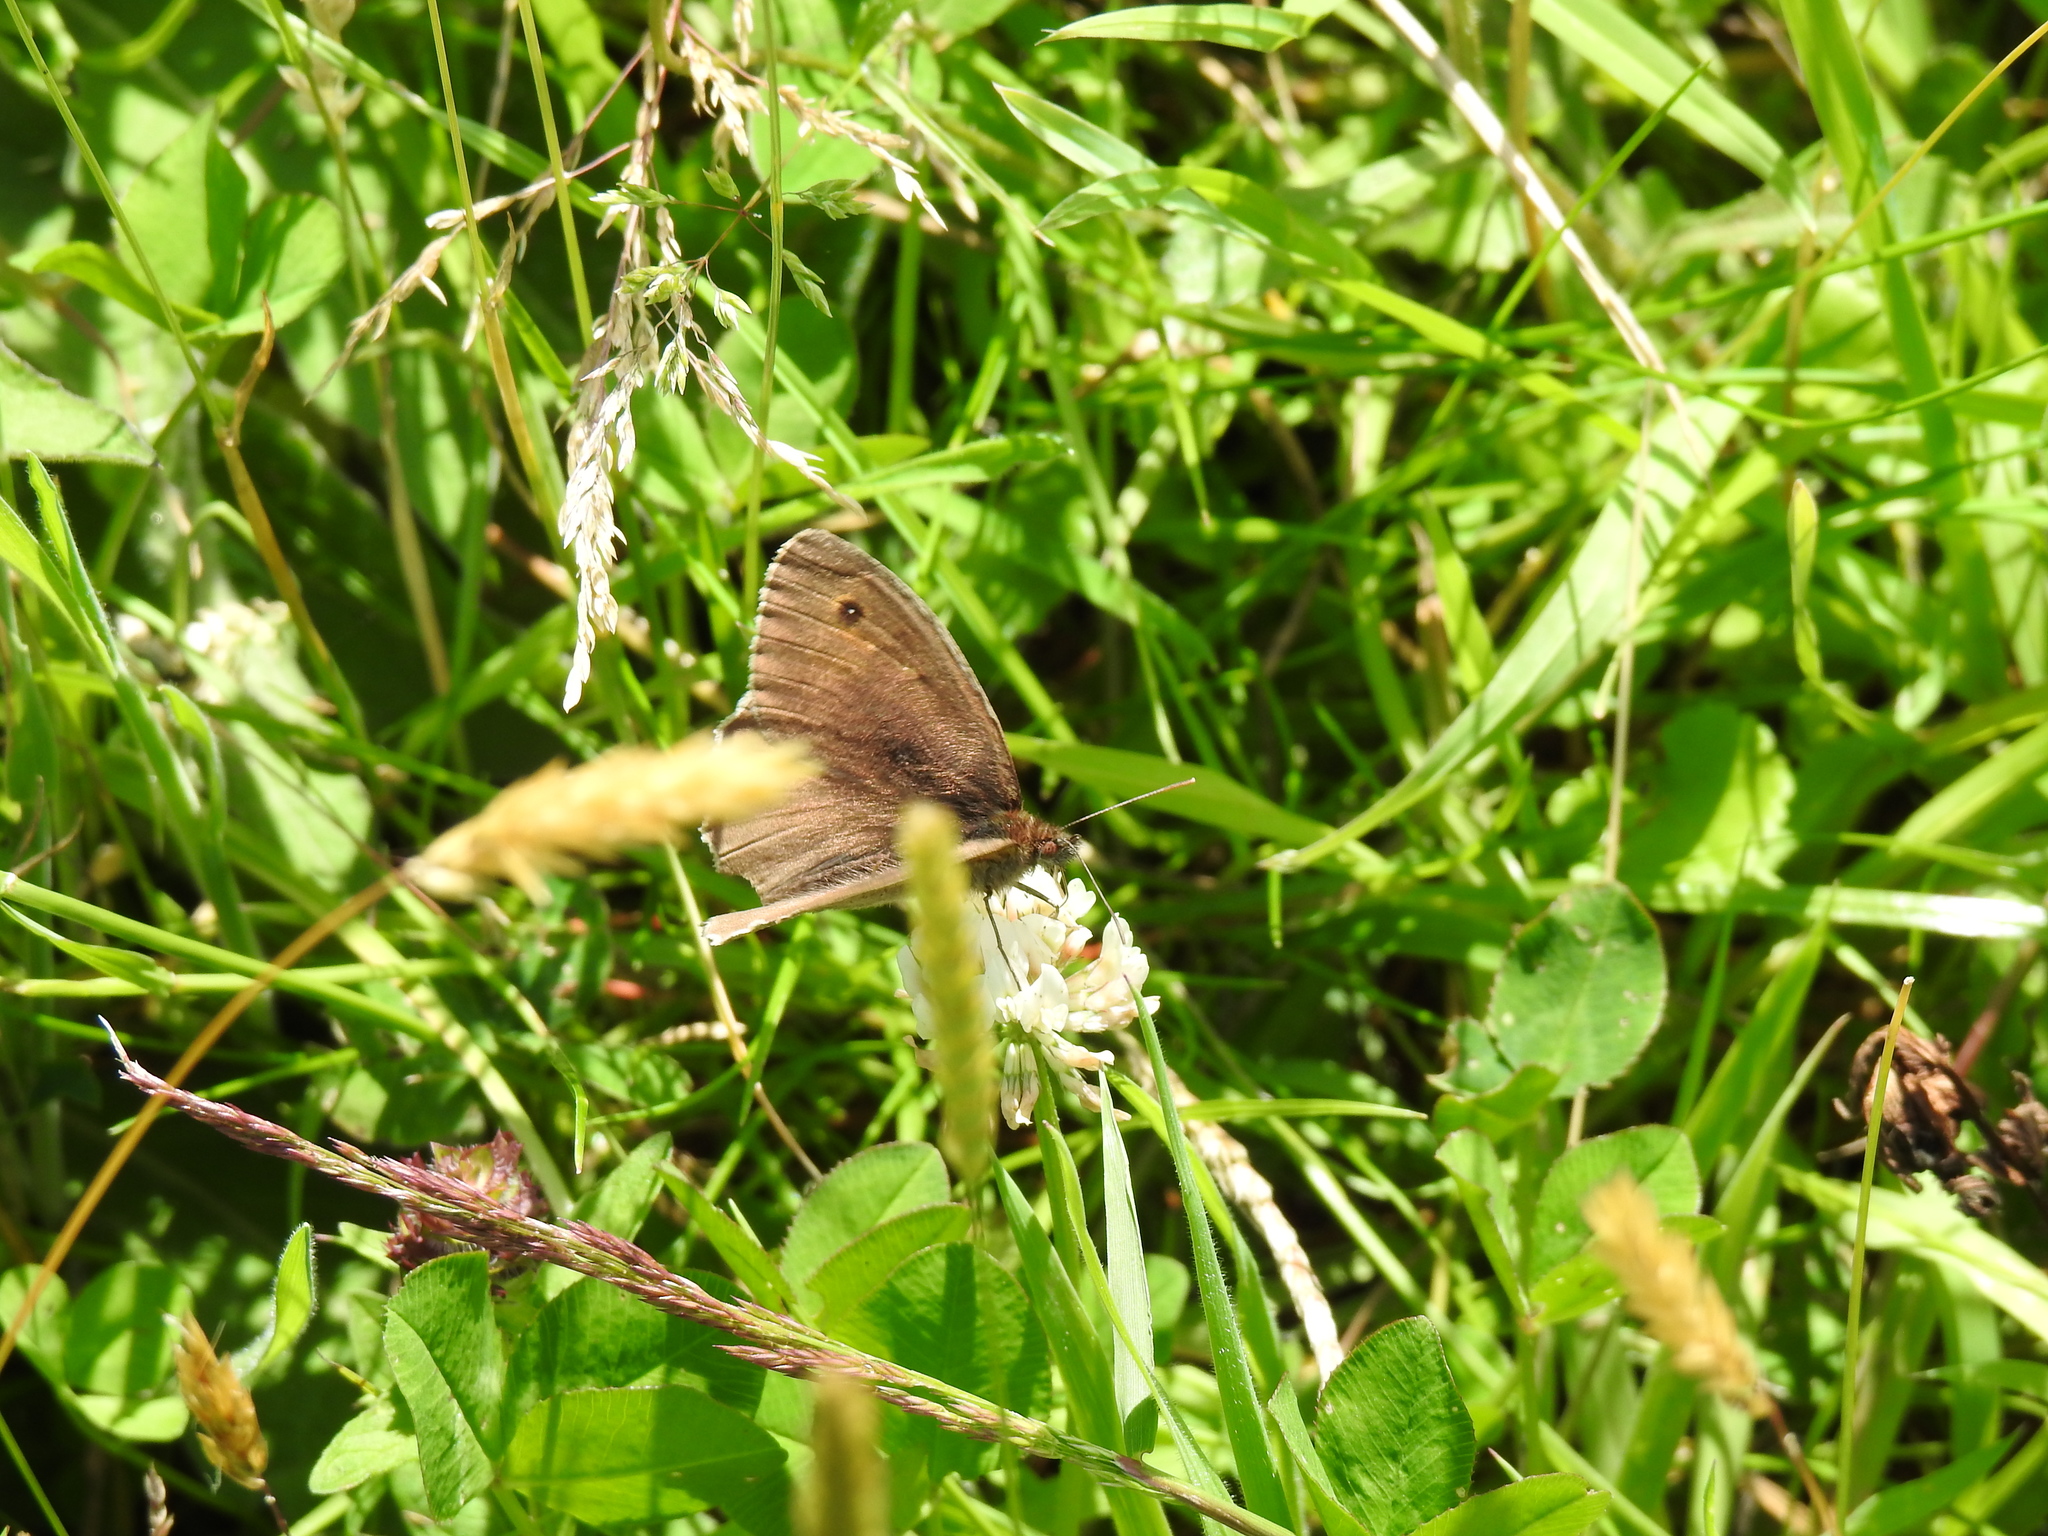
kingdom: Animalia
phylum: Arthropoda
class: Insecta
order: Lepidoptera
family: Nymphalidae
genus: Maniola
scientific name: Maniola jurtina
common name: Meadow brown
